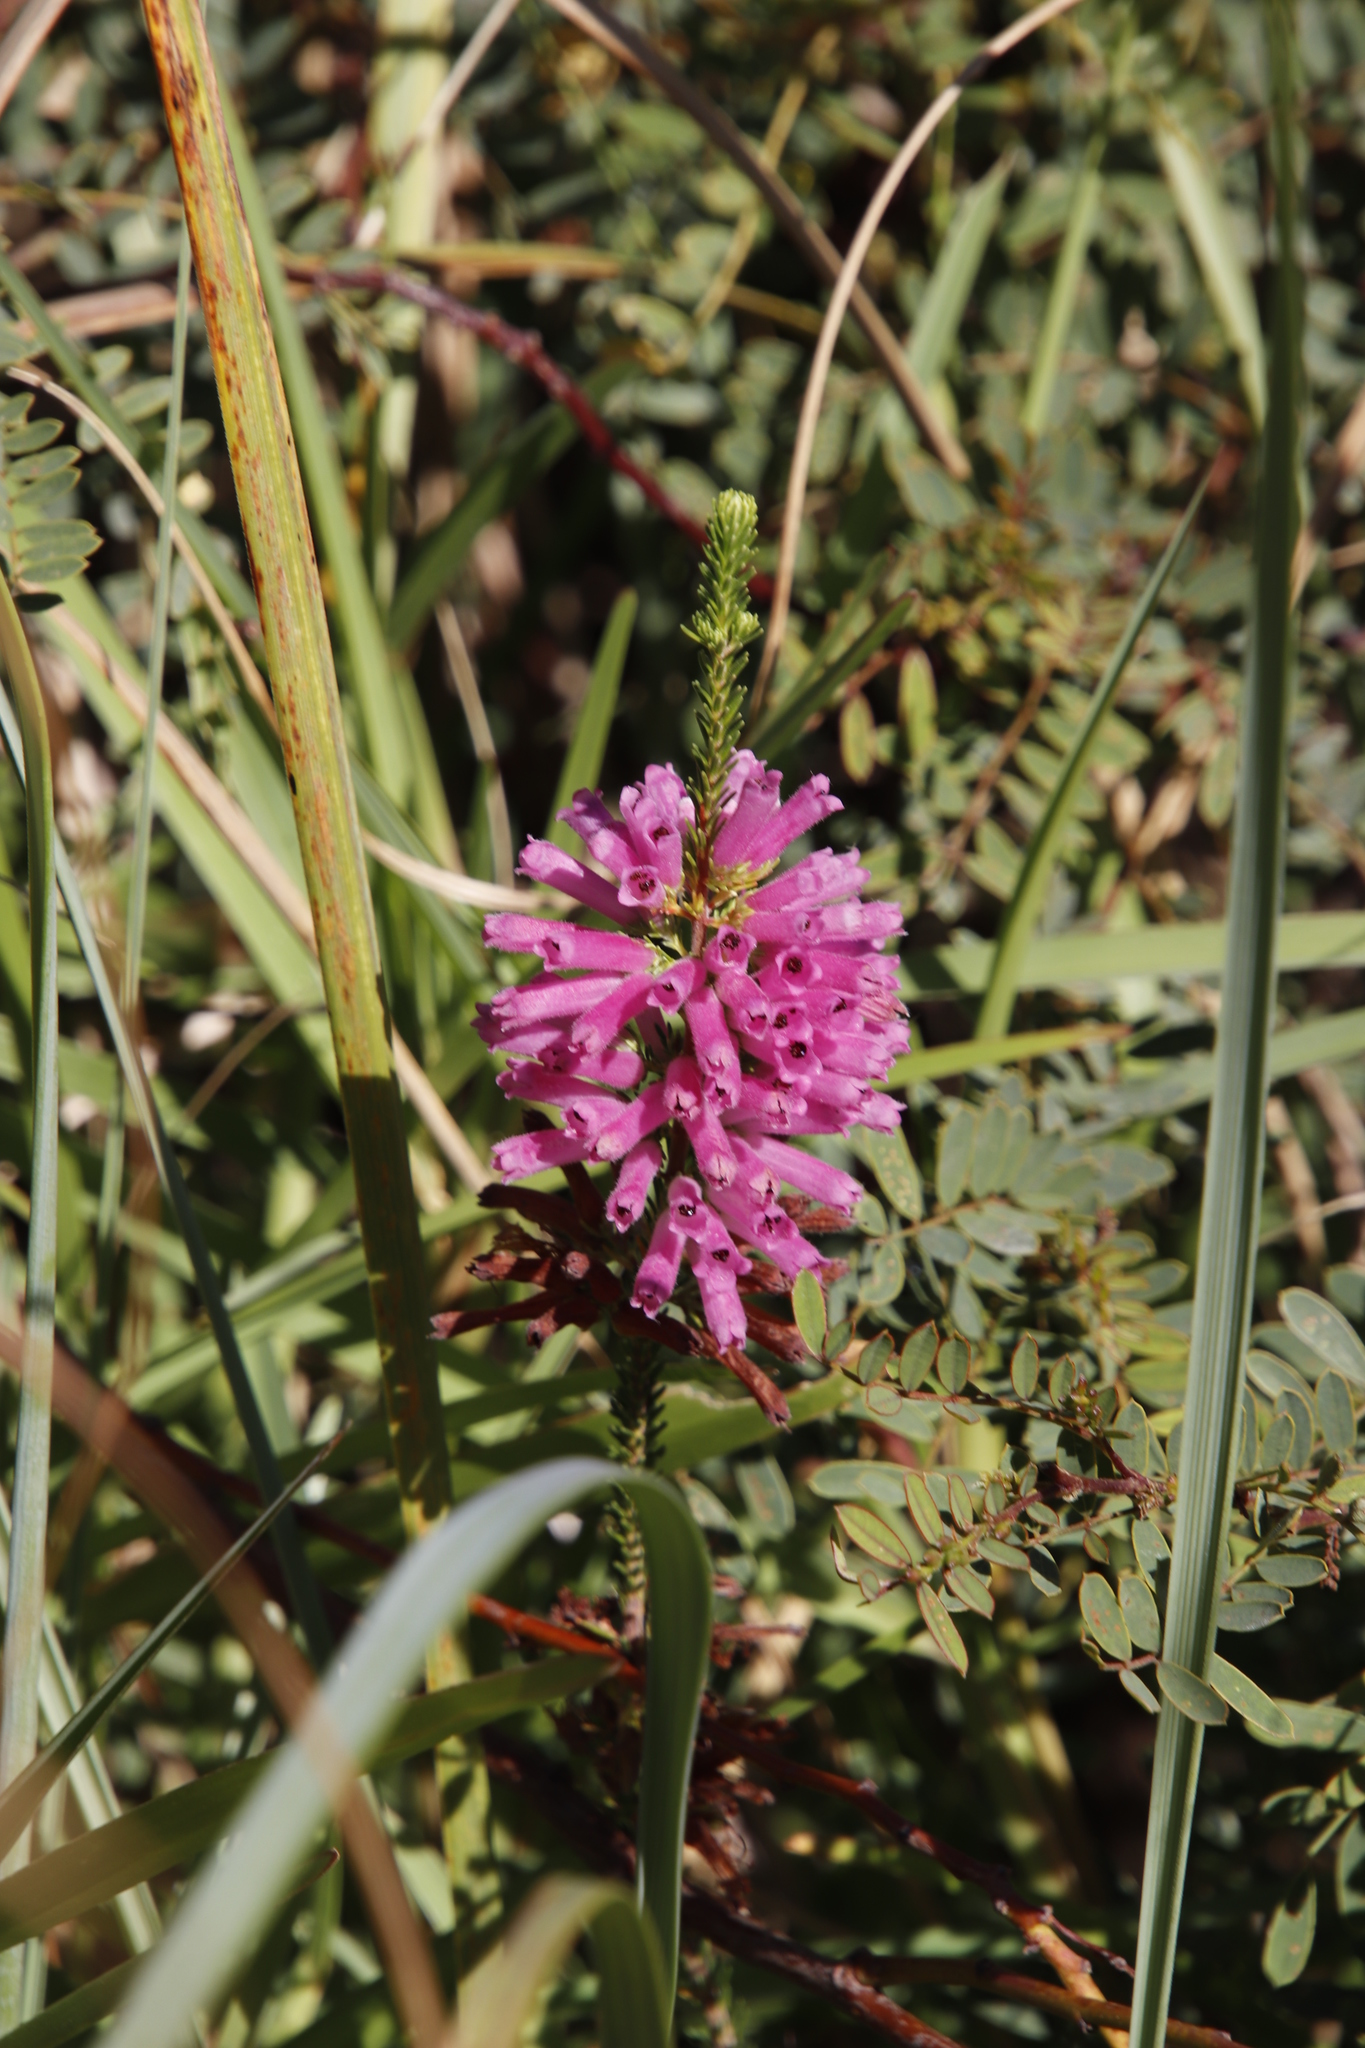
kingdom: Plantae
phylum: Tracheophyta
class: Magnoliopsida
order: Ericales
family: Ericaceae
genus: Erica
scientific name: Erica verticillata
